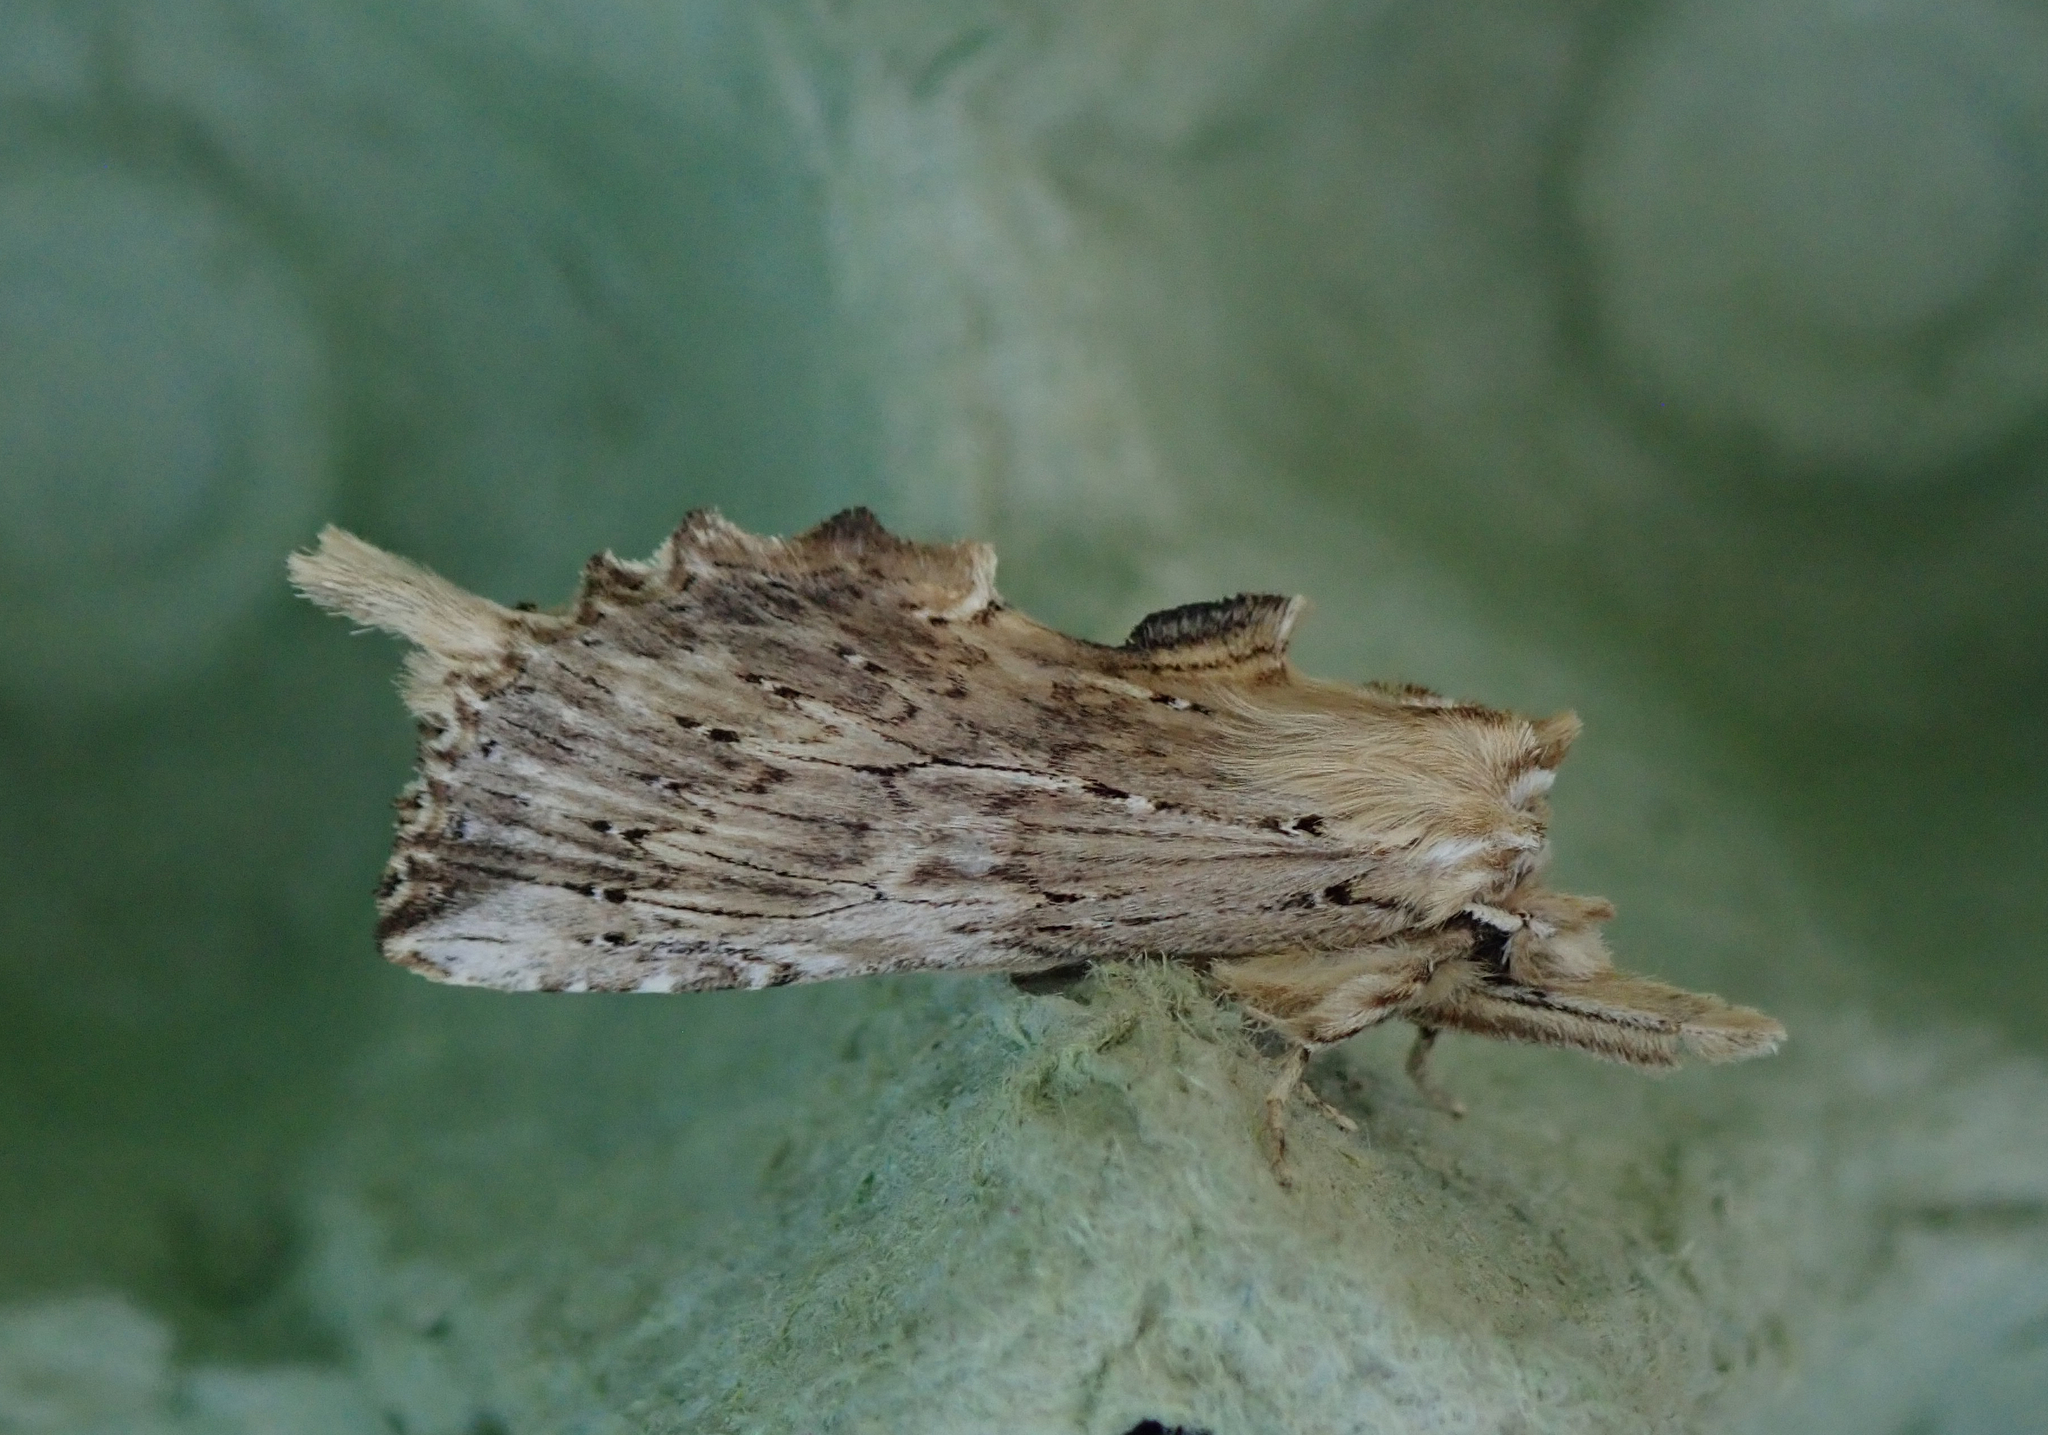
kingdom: Animalia
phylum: Arthropoda
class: Insecta
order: Lepidoptera
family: Notodontidae
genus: Pterostoma
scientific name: Pterostoma palpina
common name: Pale prominent
